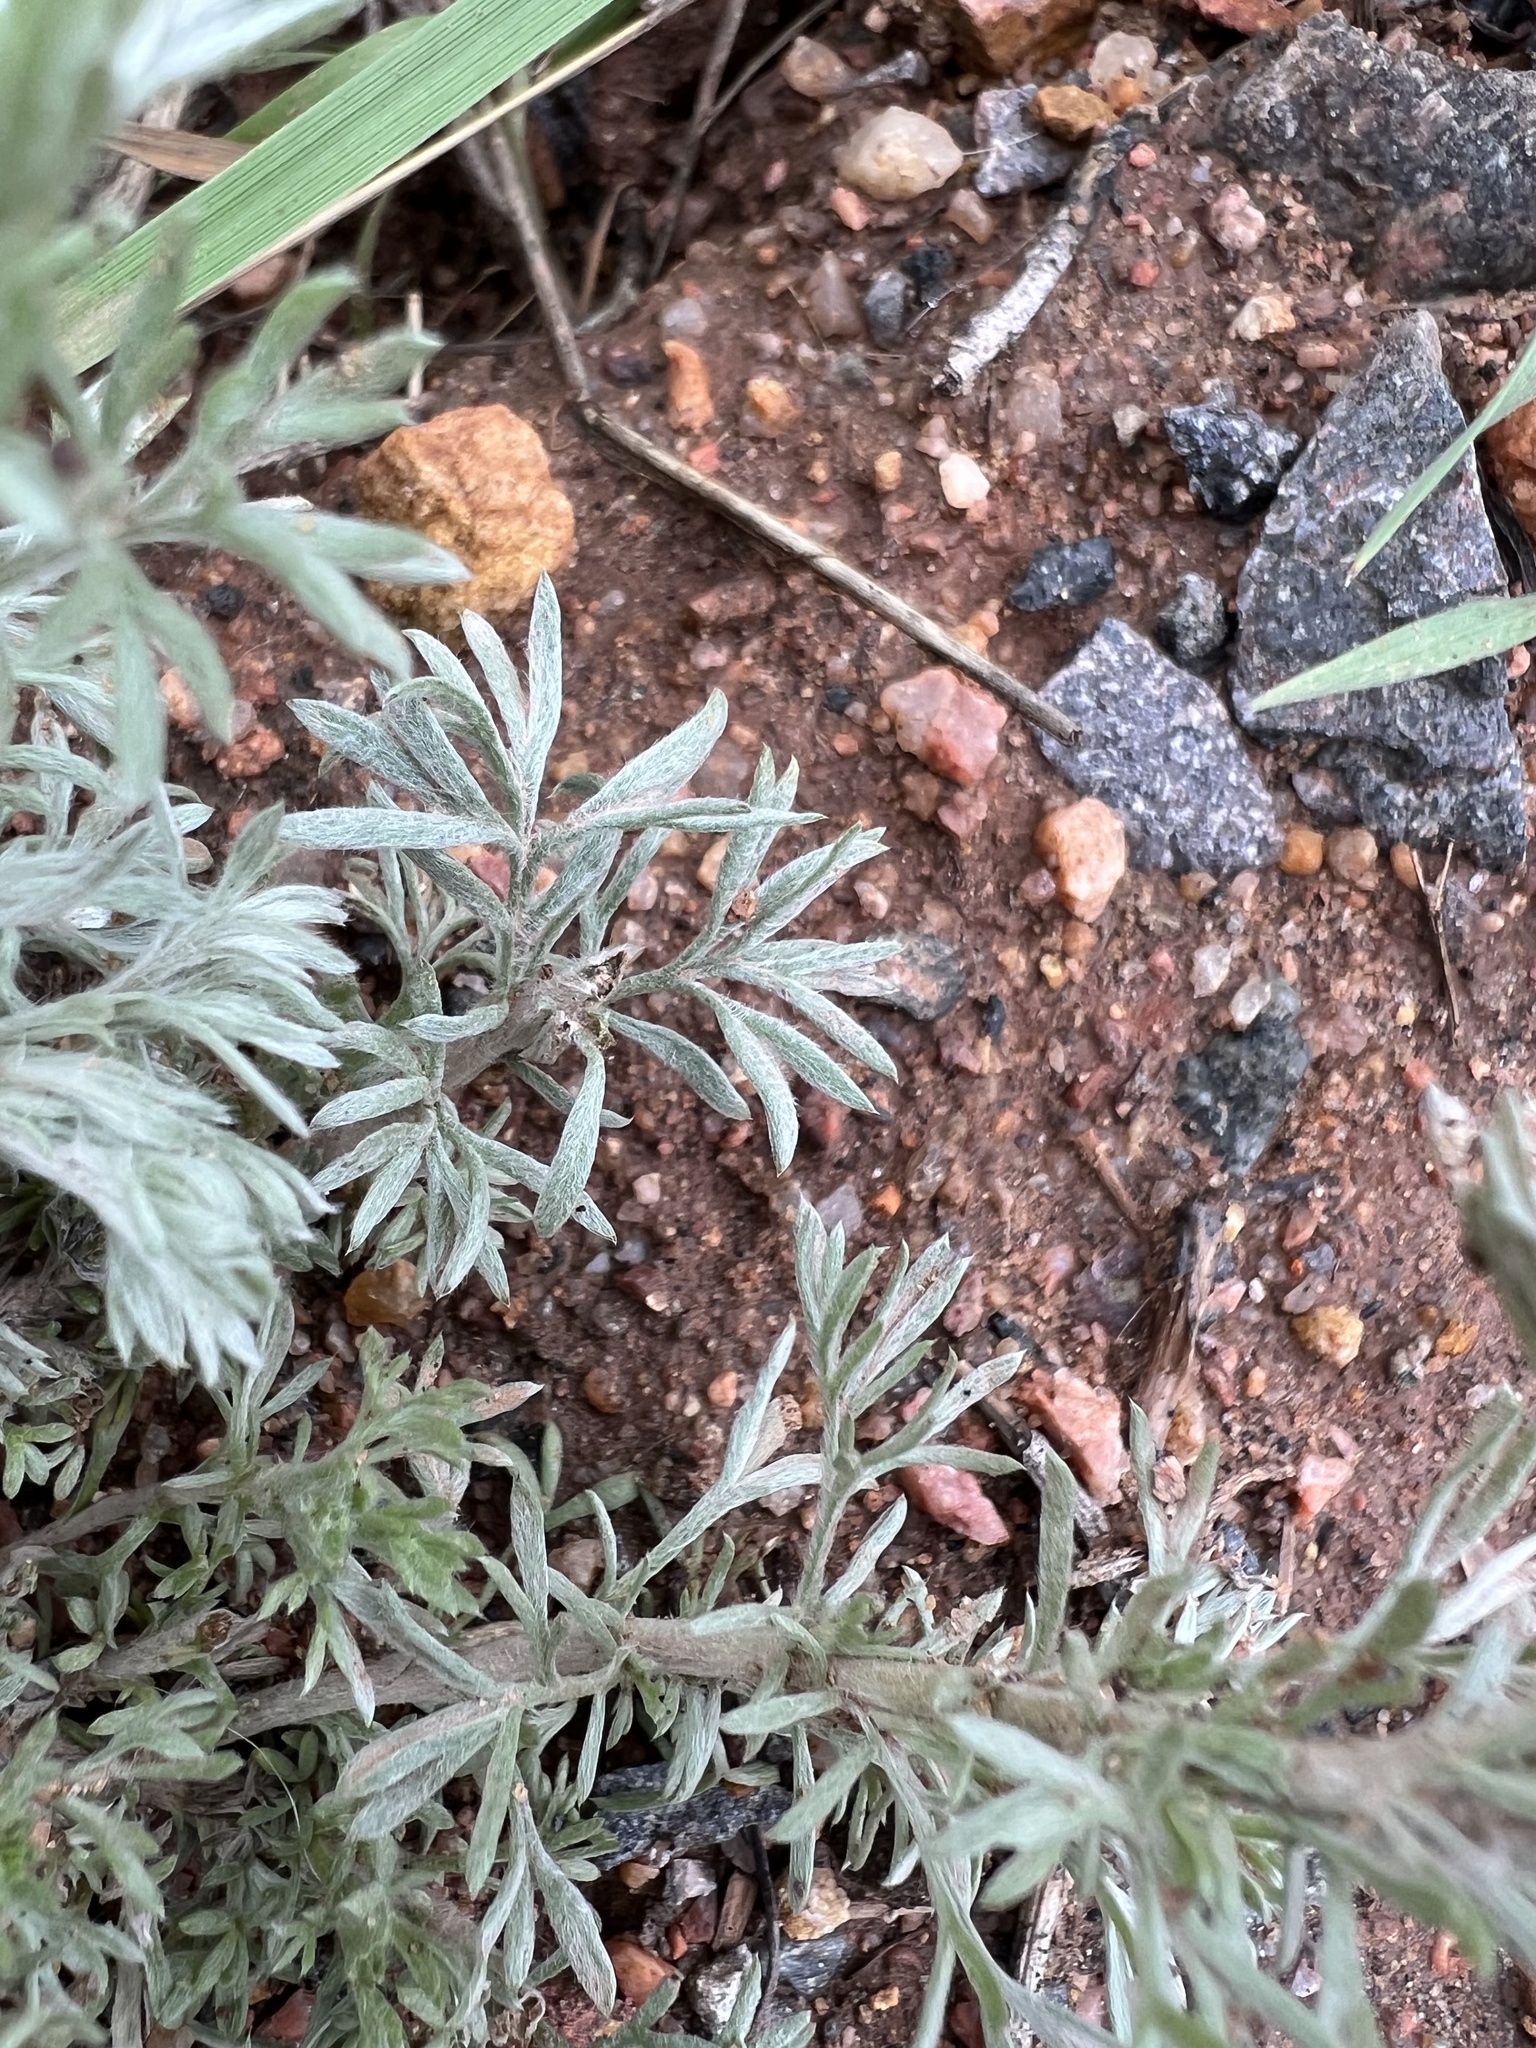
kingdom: Plantae
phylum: Tracheophyta
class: Magnoliopsida
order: Asterales
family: Asteraceae
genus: Artemisia
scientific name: Artemisia frigida
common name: Prairie sagewort
